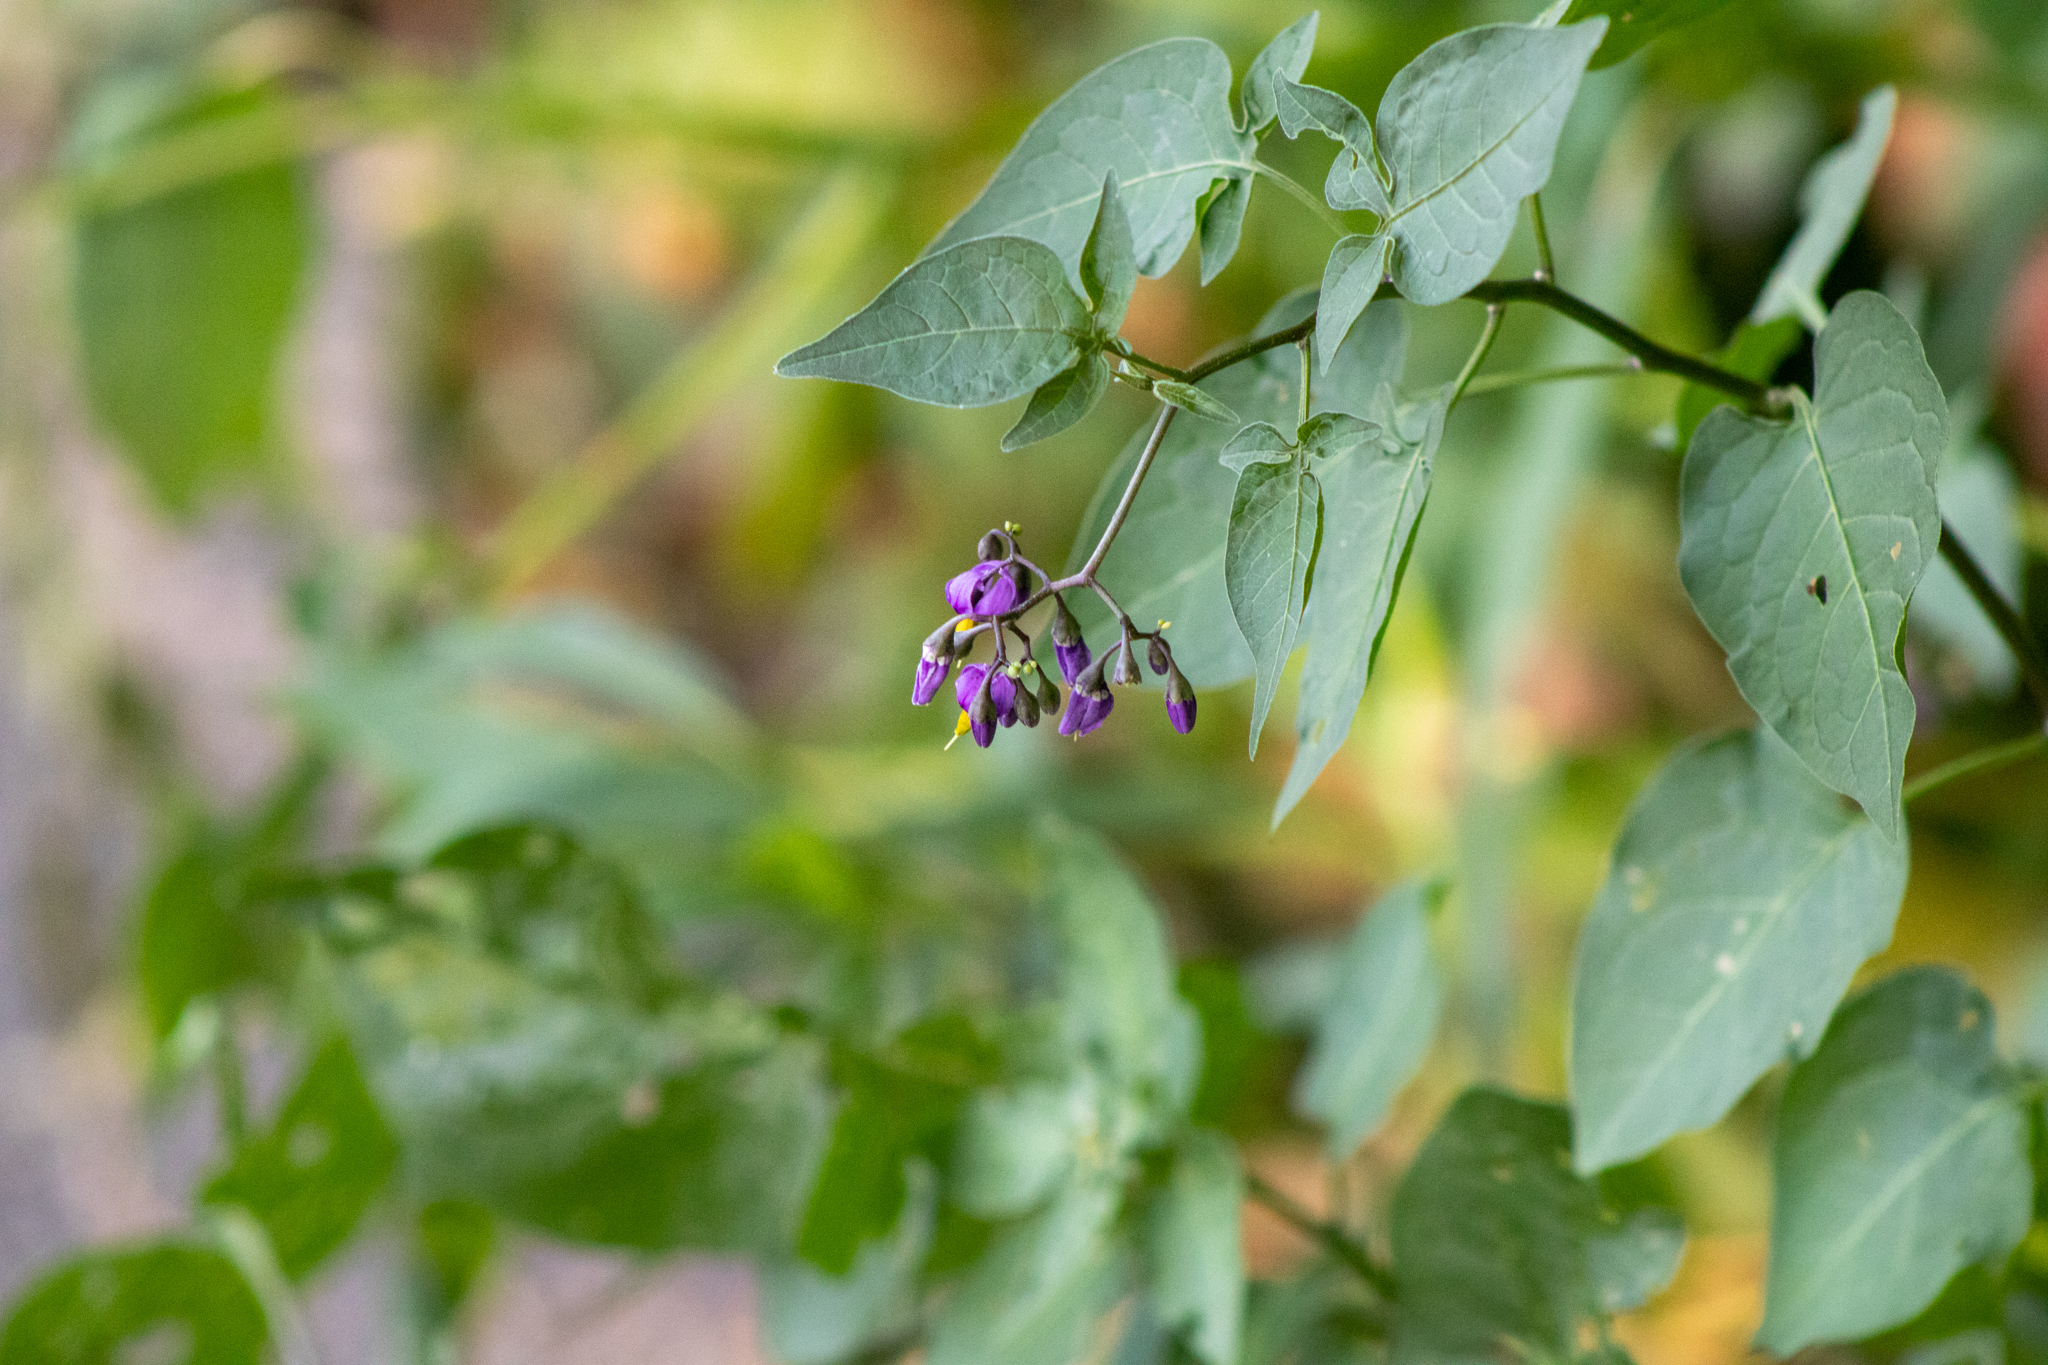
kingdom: Plantae
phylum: Tracheophyta
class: Magnoliopsida
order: Solanales
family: Solanaceae
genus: Solanum
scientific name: Solanum dulcamara
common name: Climbing nightshade
